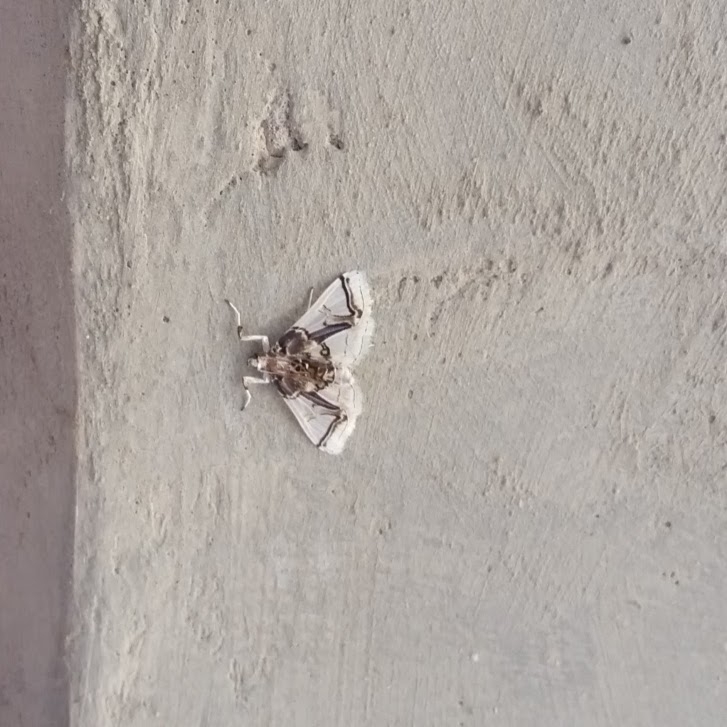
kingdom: Animalia
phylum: Arthropoda
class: Insecta
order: Lepidoptera
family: Crambidae
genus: Leucinodes
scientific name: Leucinodes vagans
